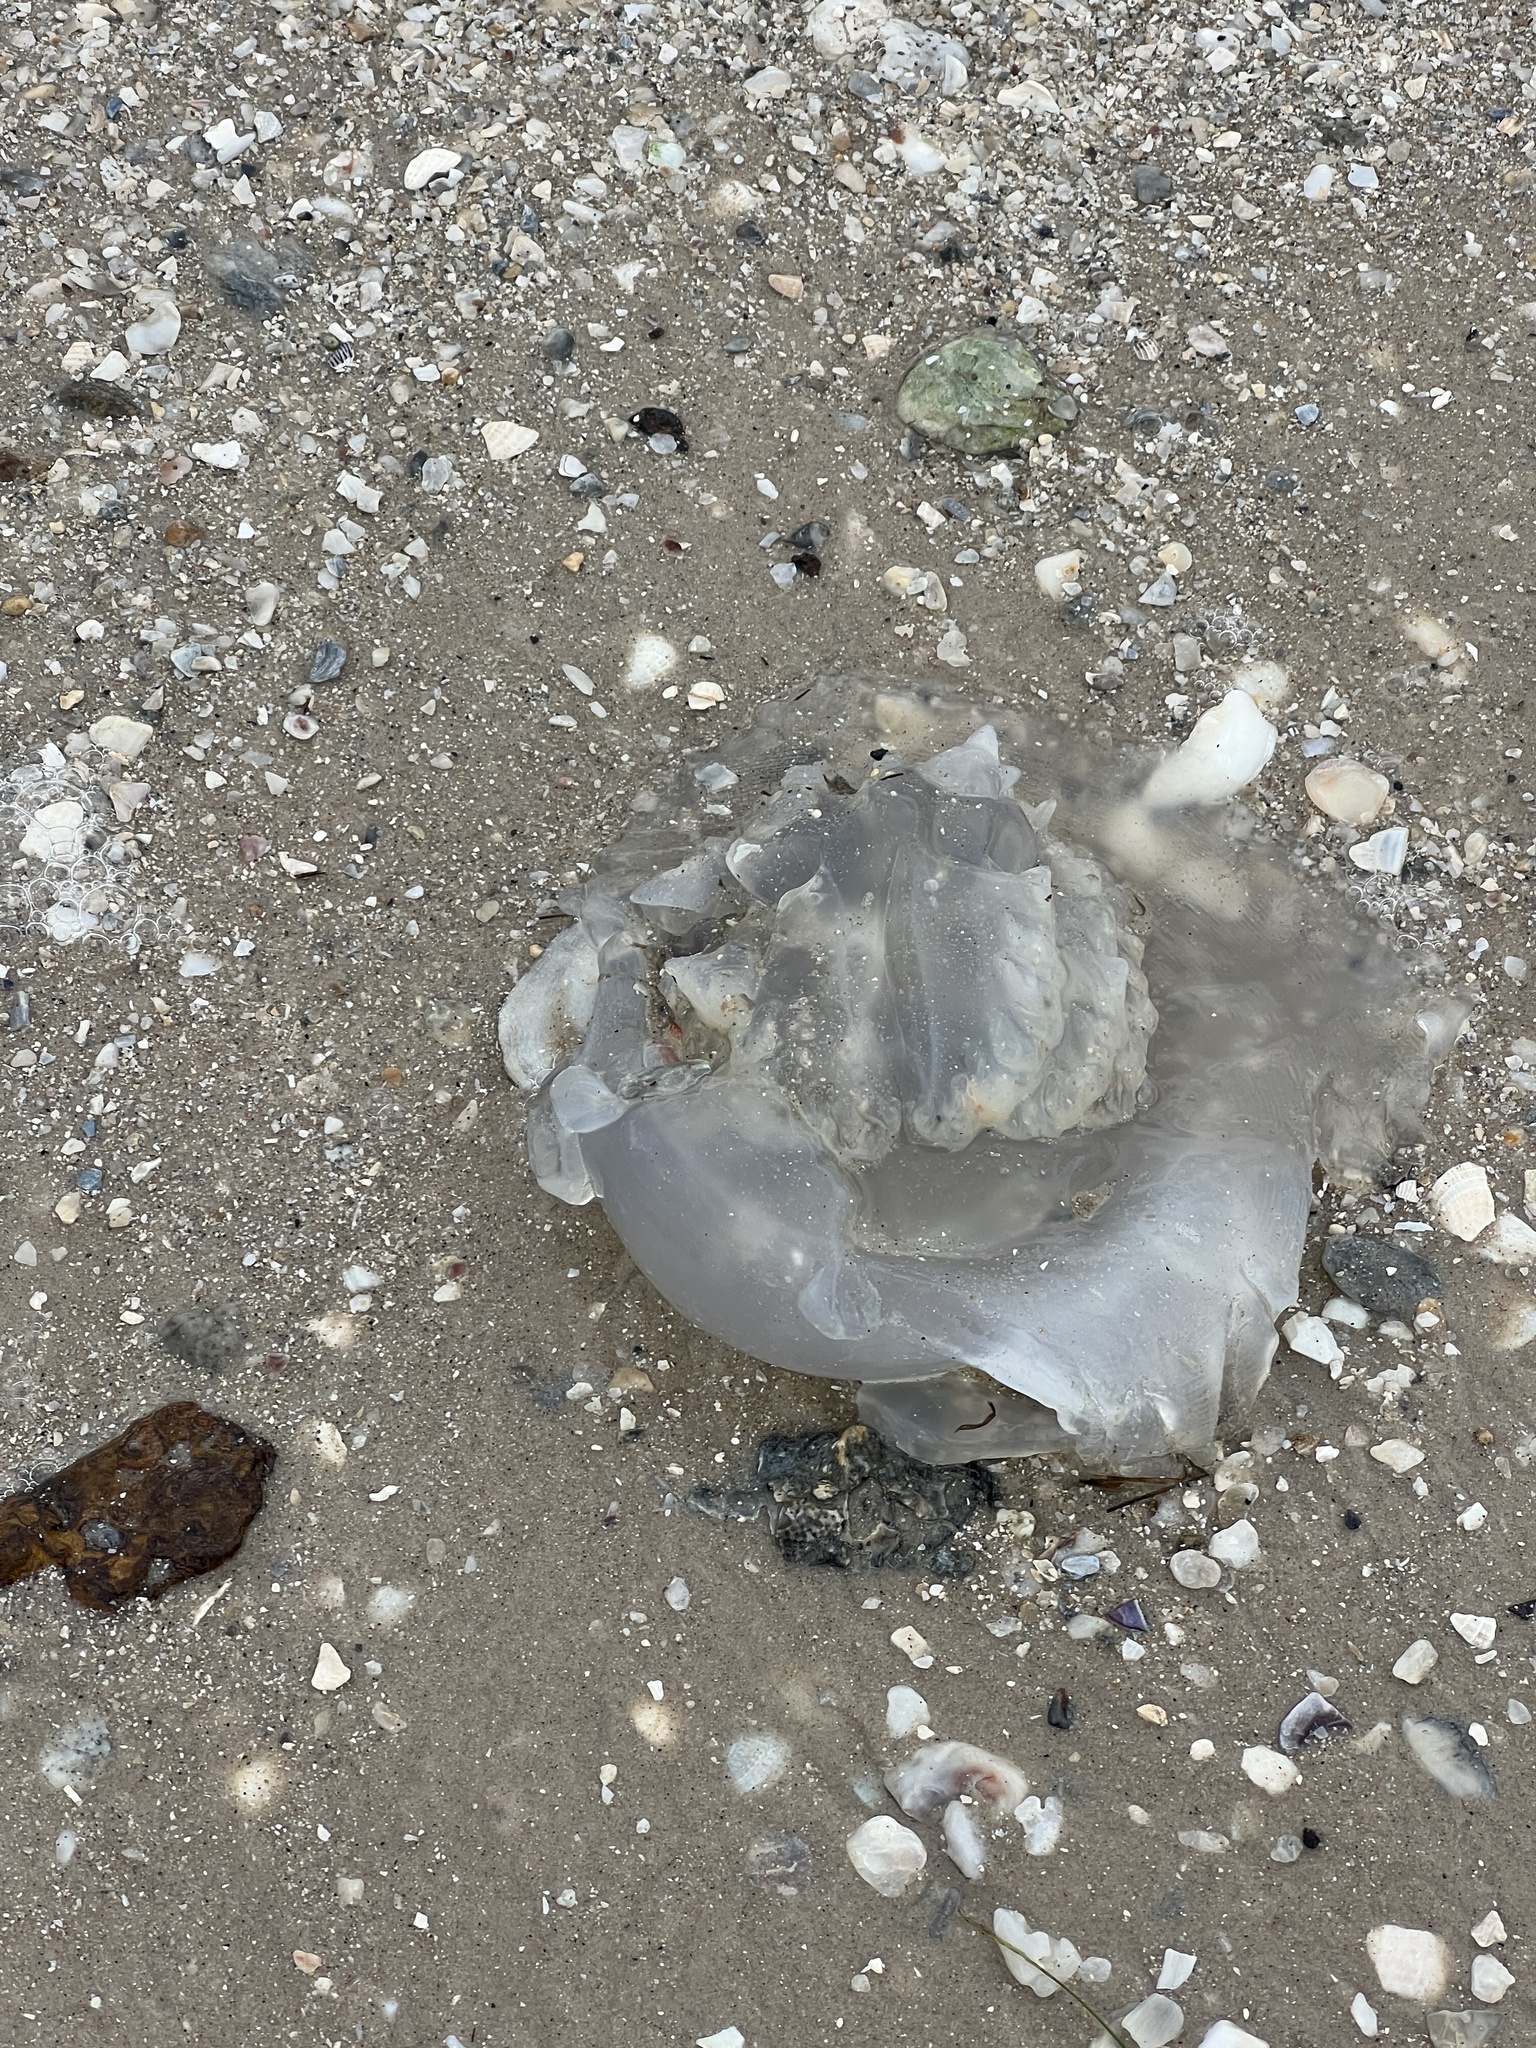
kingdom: Animalia
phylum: Cnidaria
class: Scyphozoa
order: Rhizostomeae
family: Stomolophidae
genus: Stomolophus
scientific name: Stomolophus meleagris
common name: Cabbagehead
